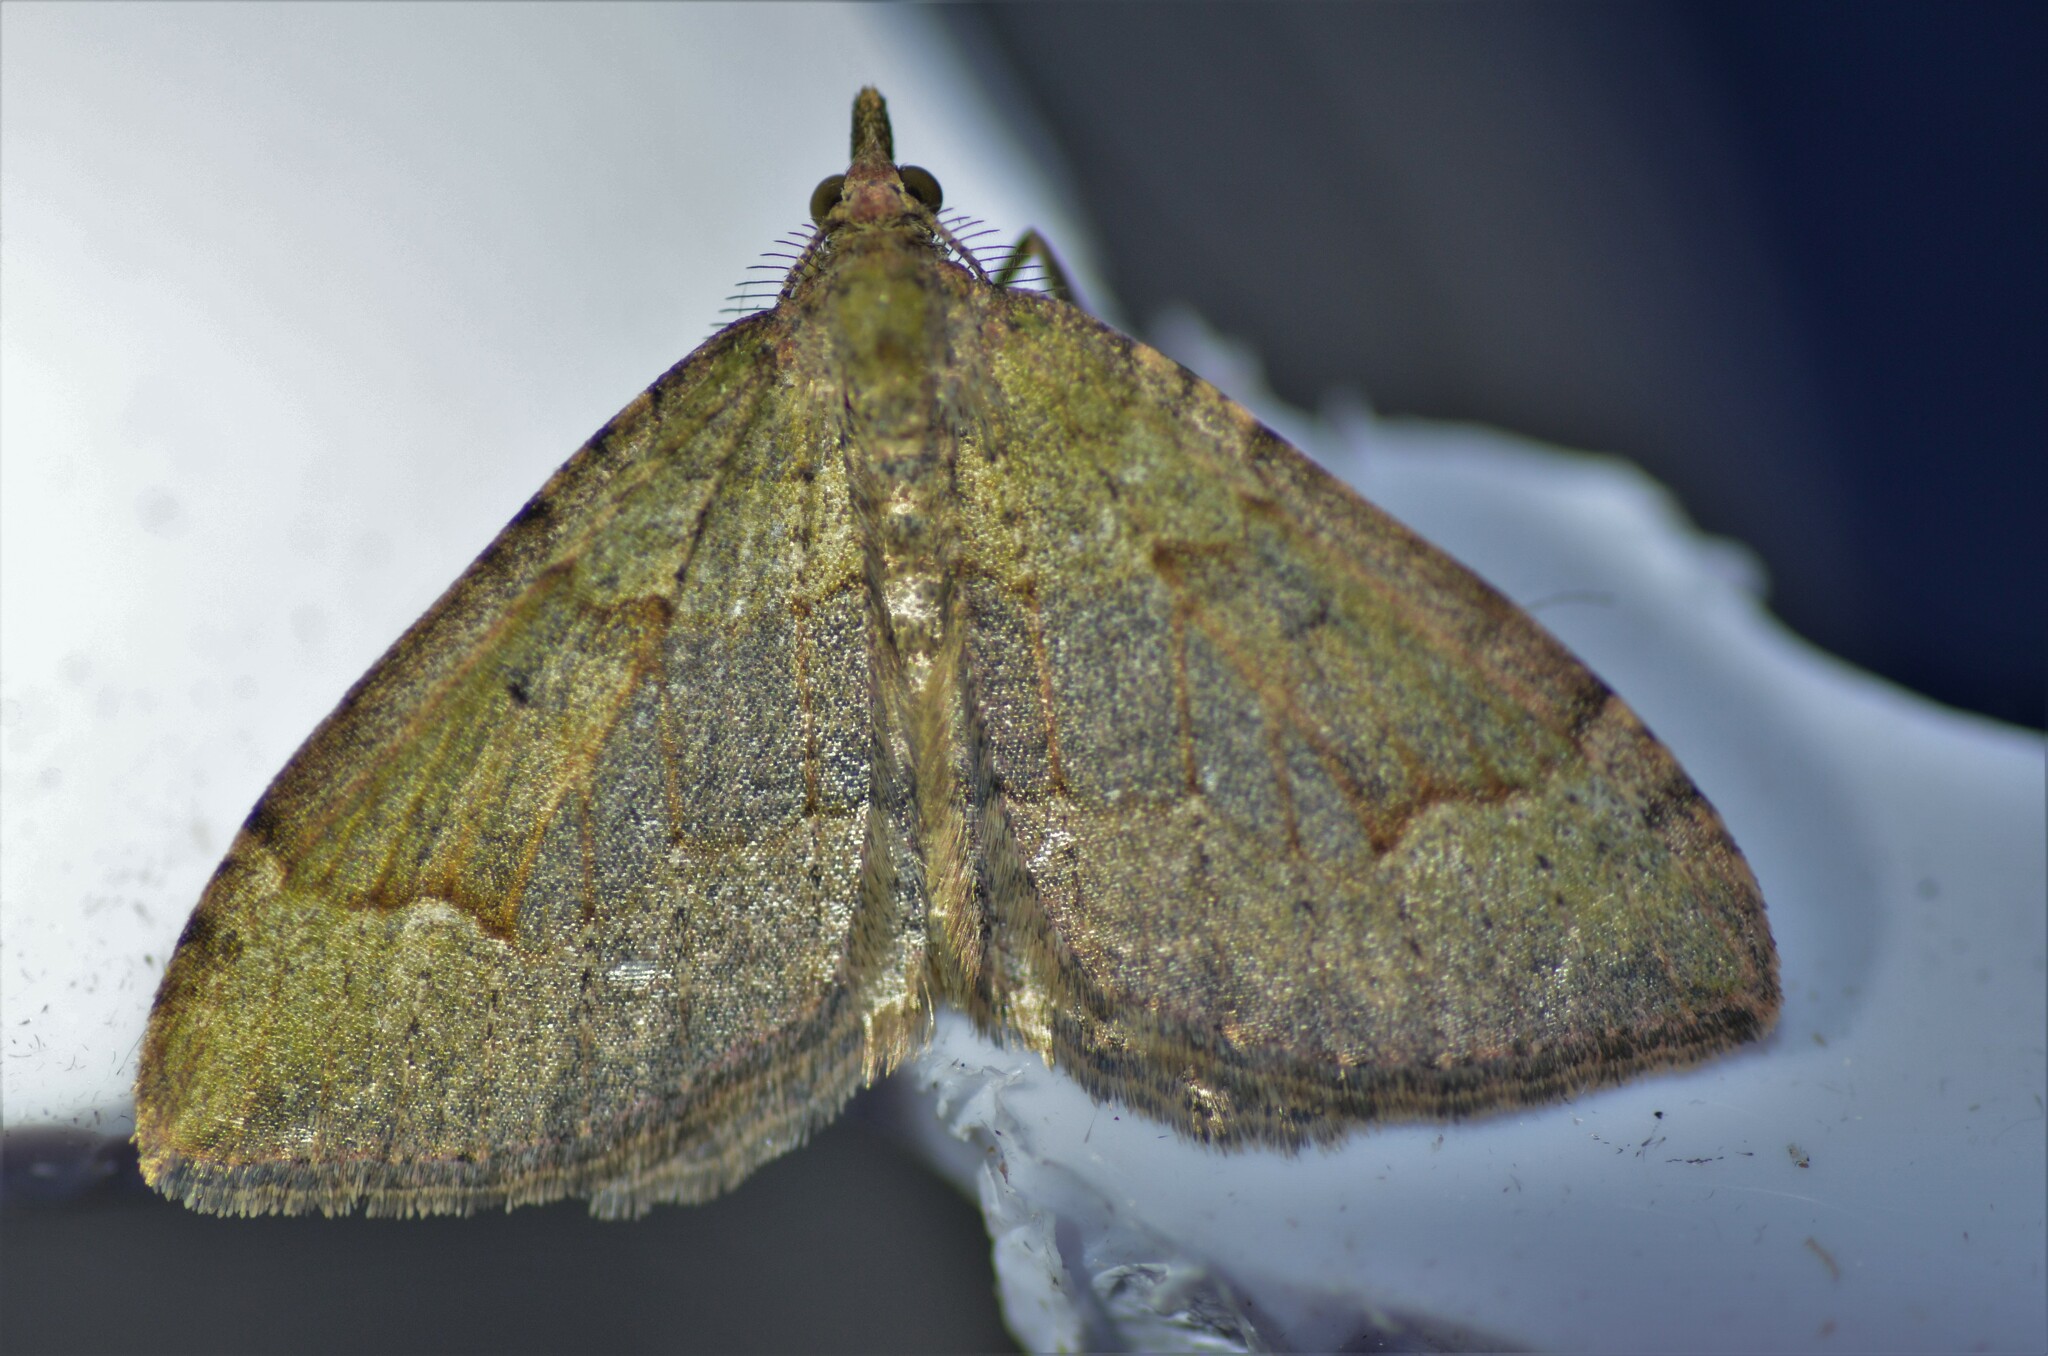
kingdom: Animalia
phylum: Arthropoda
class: Insecta
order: Lepidoptera
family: Geometridae
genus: Epyaxa
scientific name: Epyaxa rosearia
